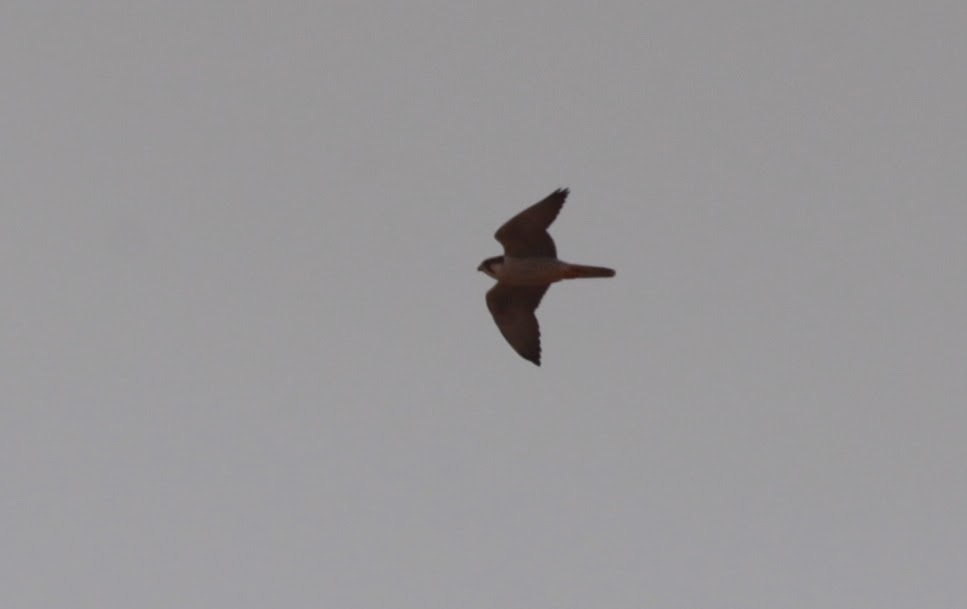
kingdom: Animalia
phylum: Chordata
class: Aves
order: Falconiformes
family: Falconidae
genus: Falco
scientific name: Falco biarmicus
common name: Lanner falcon
